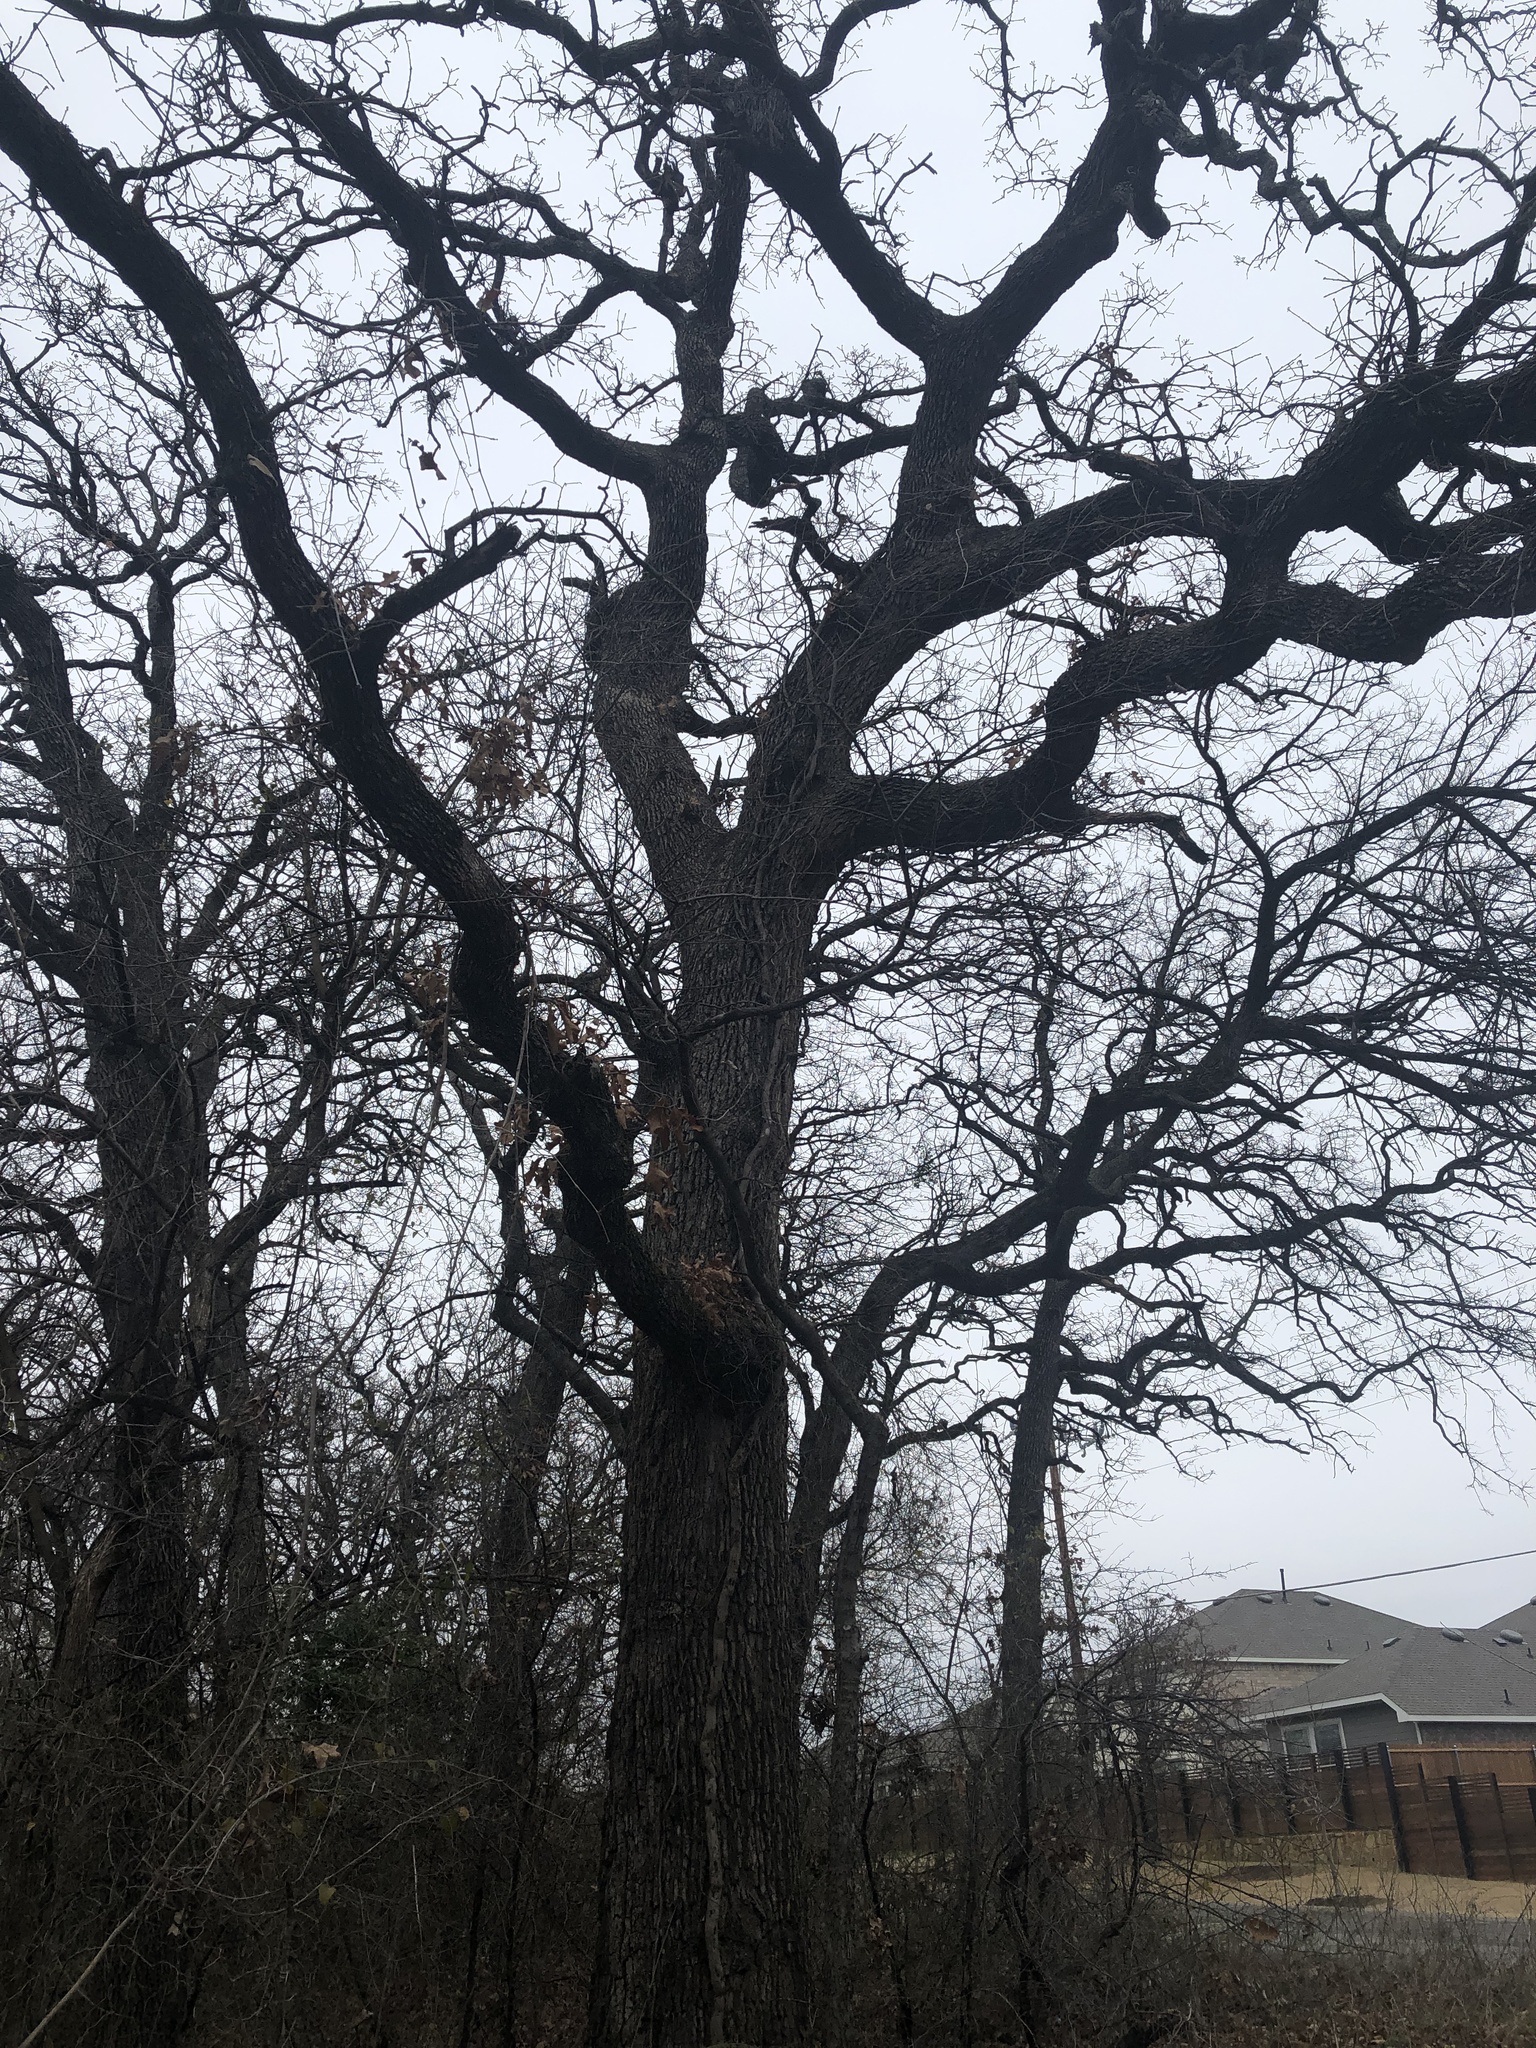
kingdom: Plantae
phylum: Tracheophyta
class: Magnoliopsida
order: Fagales
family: Fagaceae
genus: Quercus
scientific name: Quercus stellata
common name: Post oak
